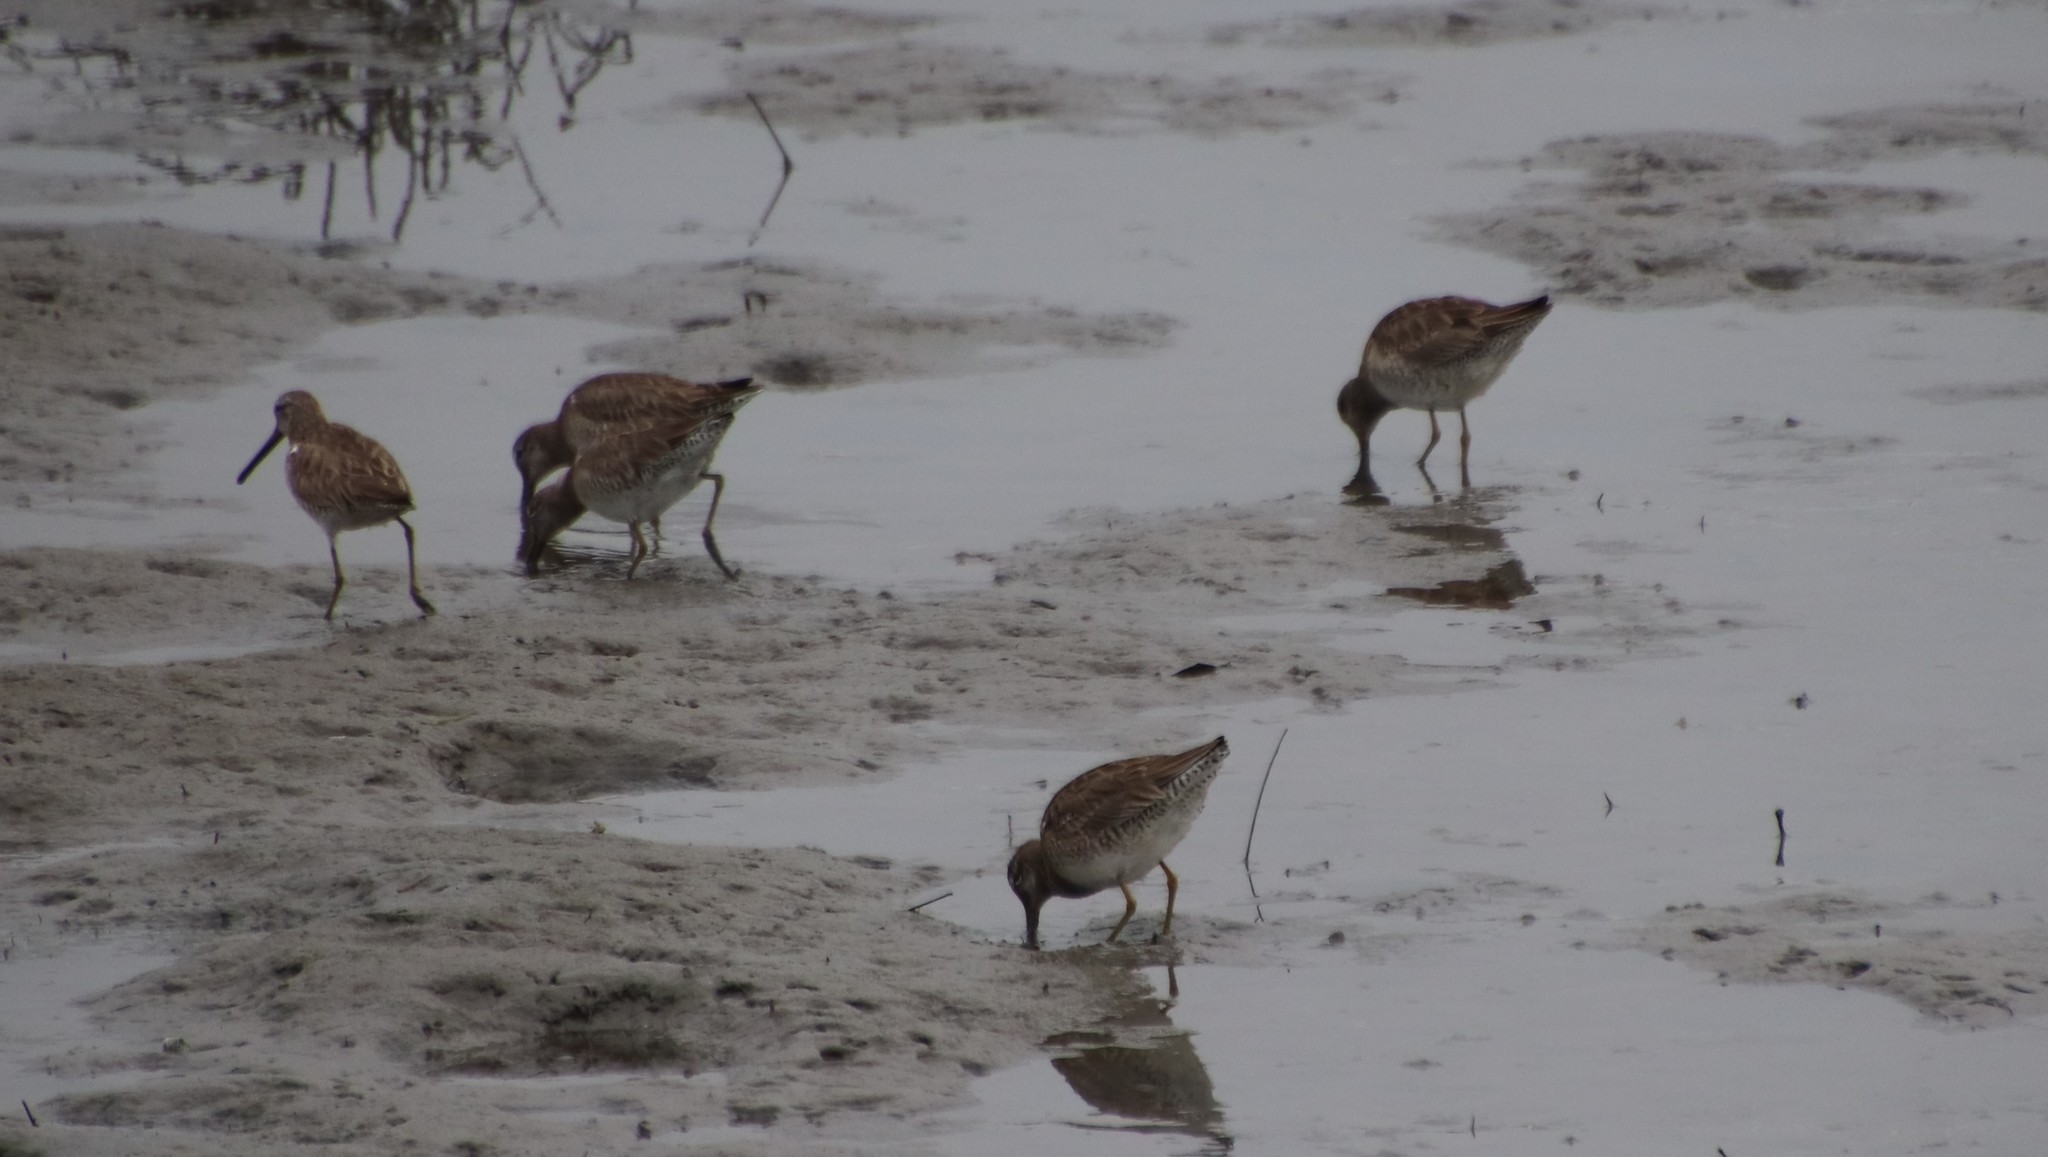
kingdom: Animalia
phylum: Chordata
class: Aves
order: Charadriiformes
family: Scolopacidae
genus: Limnodromus
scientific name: Limnodromus
